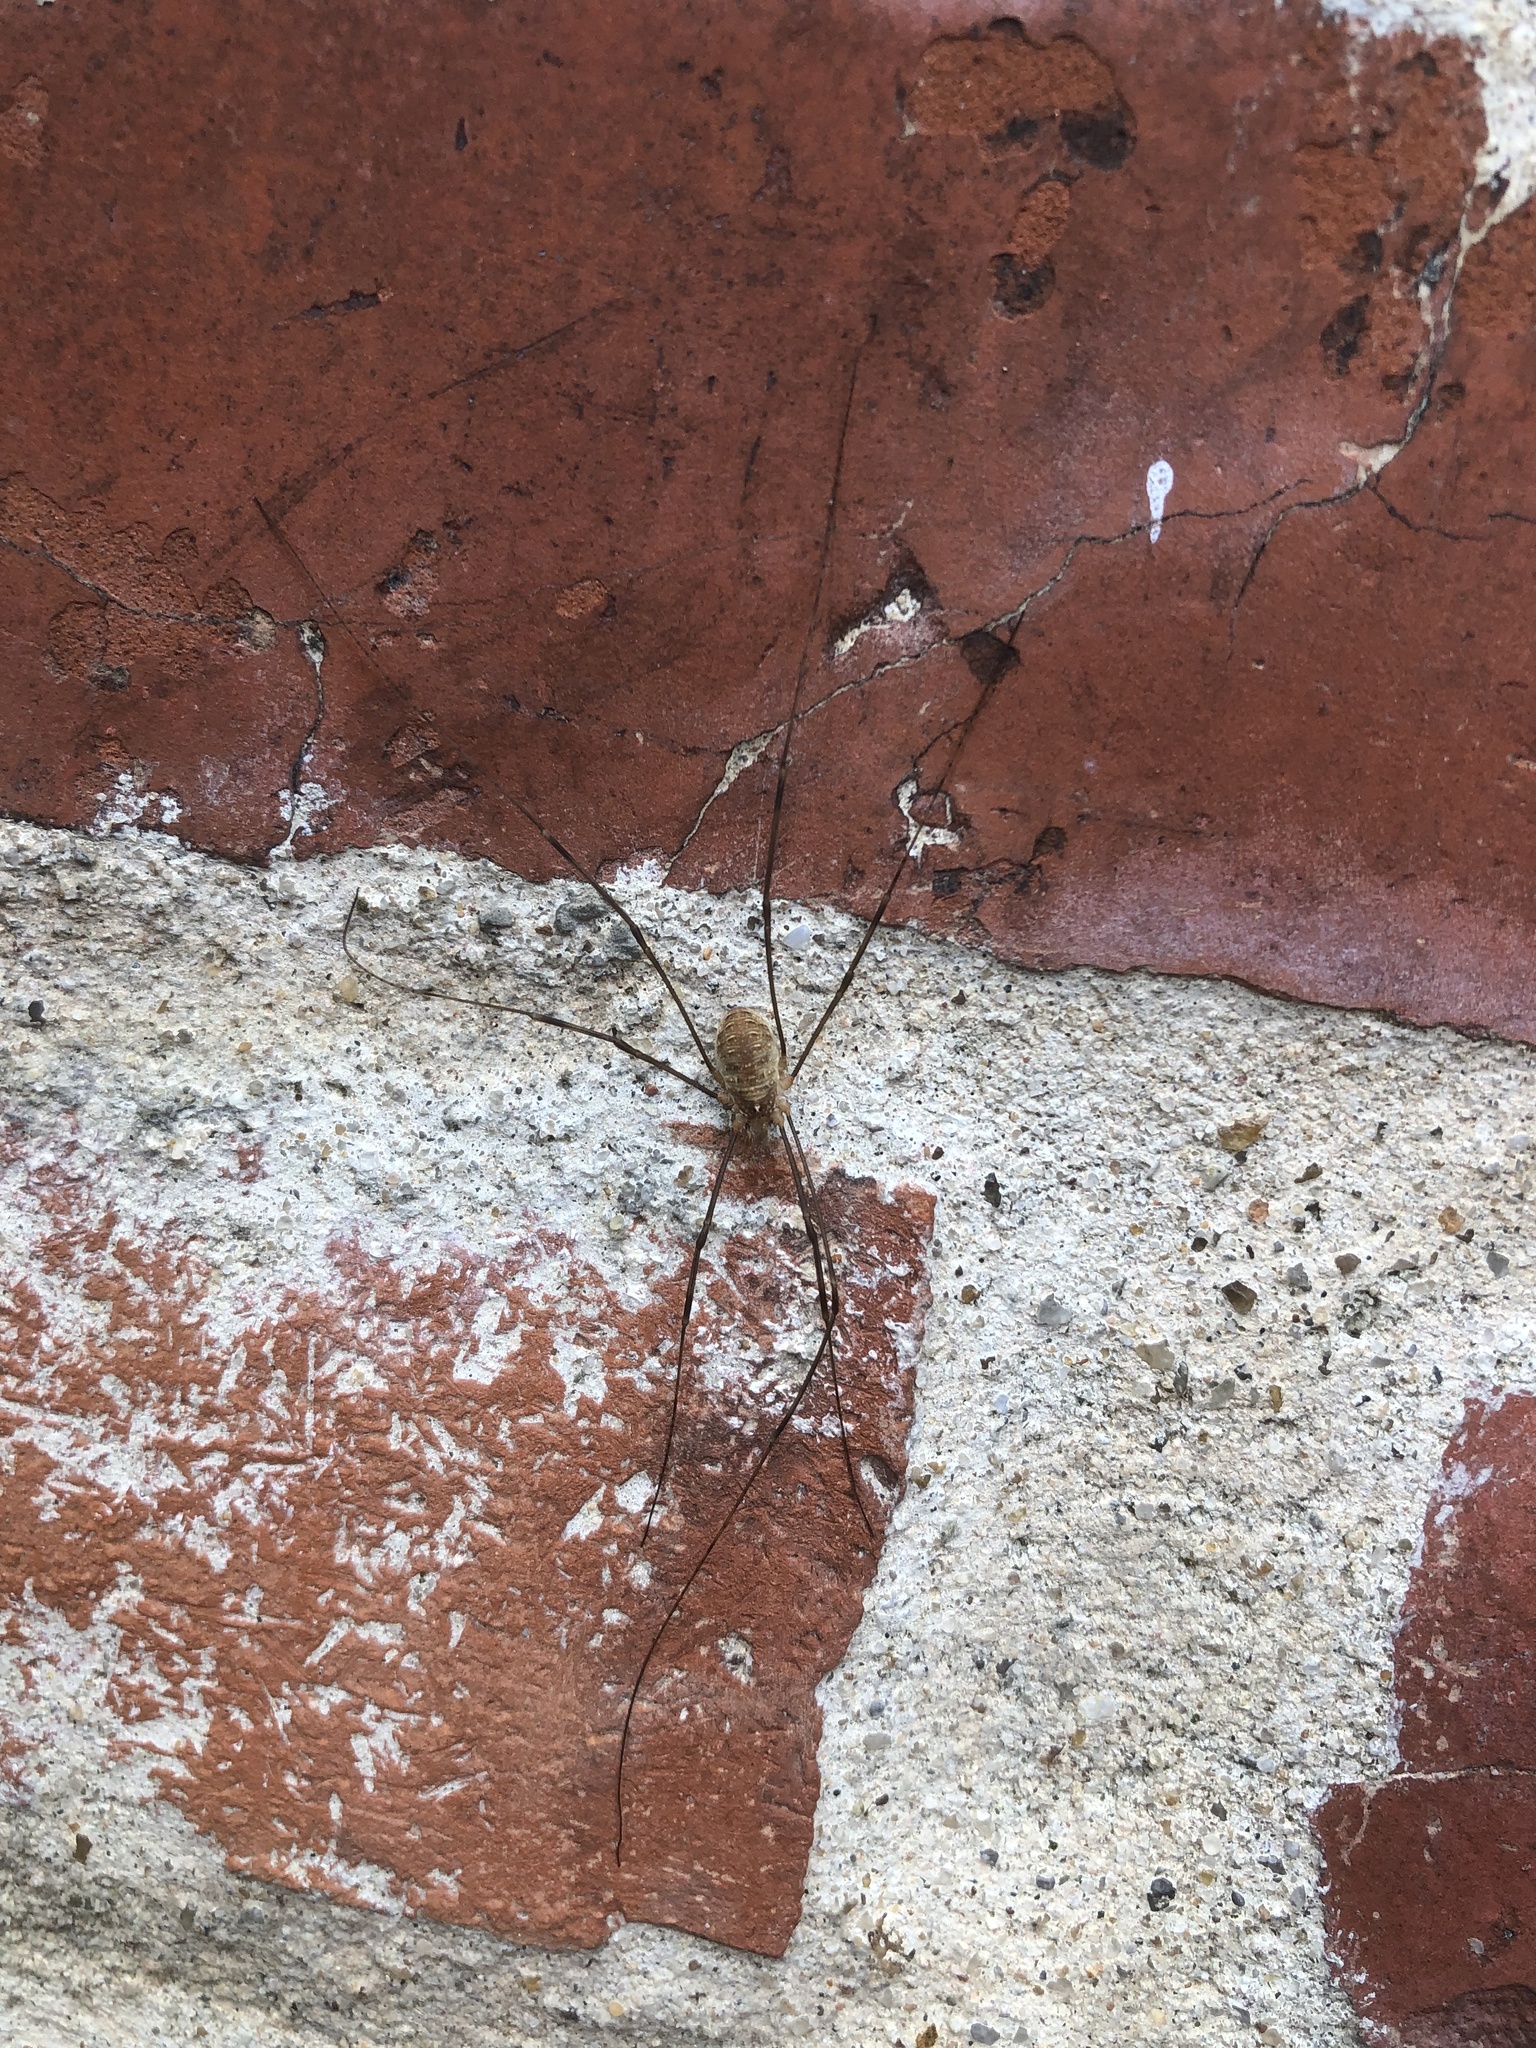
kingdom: Animalia
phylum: Arthropoda
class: Arachnida
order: Opiliones
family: Phalangiidae
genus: Opilio
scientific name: Opilio canestrinii
